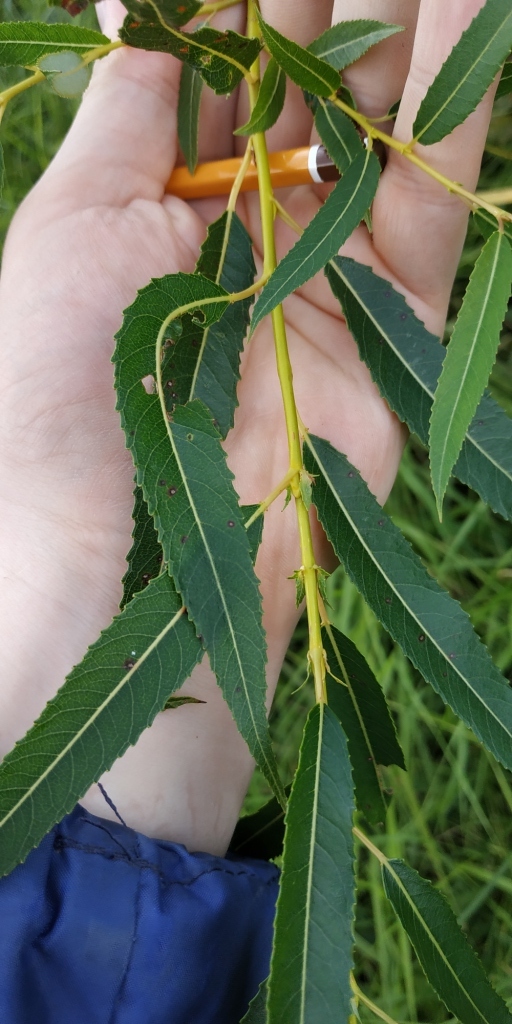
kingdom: Plantae
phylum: Tracheophyta
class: Magnoliopsida
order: Malpighiales
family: Salicaceae
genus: Salix
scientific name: Salix triandra
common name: Almond willow
